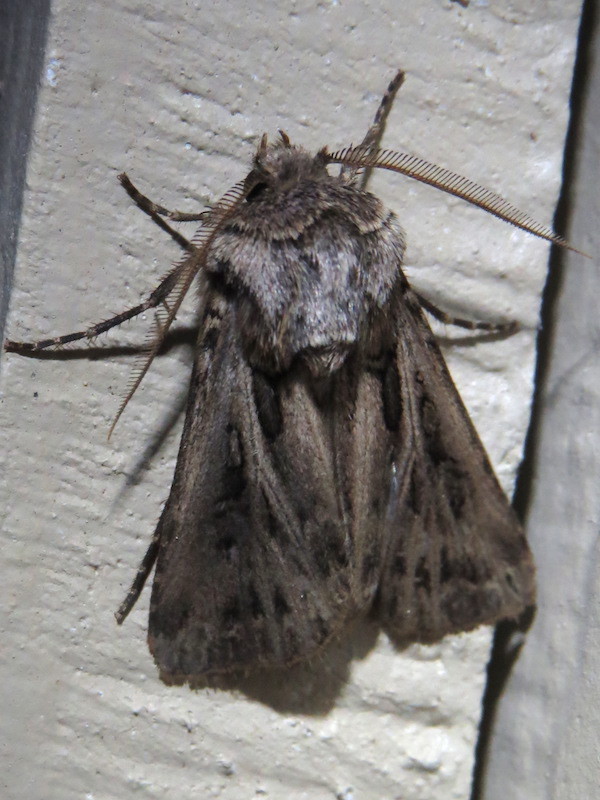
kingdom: Animalia
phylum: Arthropoda
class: Insecta
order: Lepidoptera
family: Noctuidae
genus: Agrotis
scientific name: Agrotis gladiaria
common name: Claybacked cutworm
